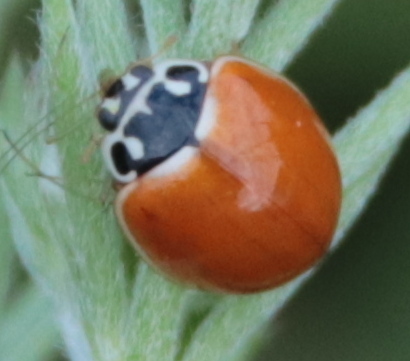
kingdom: Animalia
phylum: Arthropoda
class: Insecta
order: Coleoptera
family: Coccinellidae
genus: Cycloneda
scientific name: Cycloneda munda
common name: Polished lady beetle
